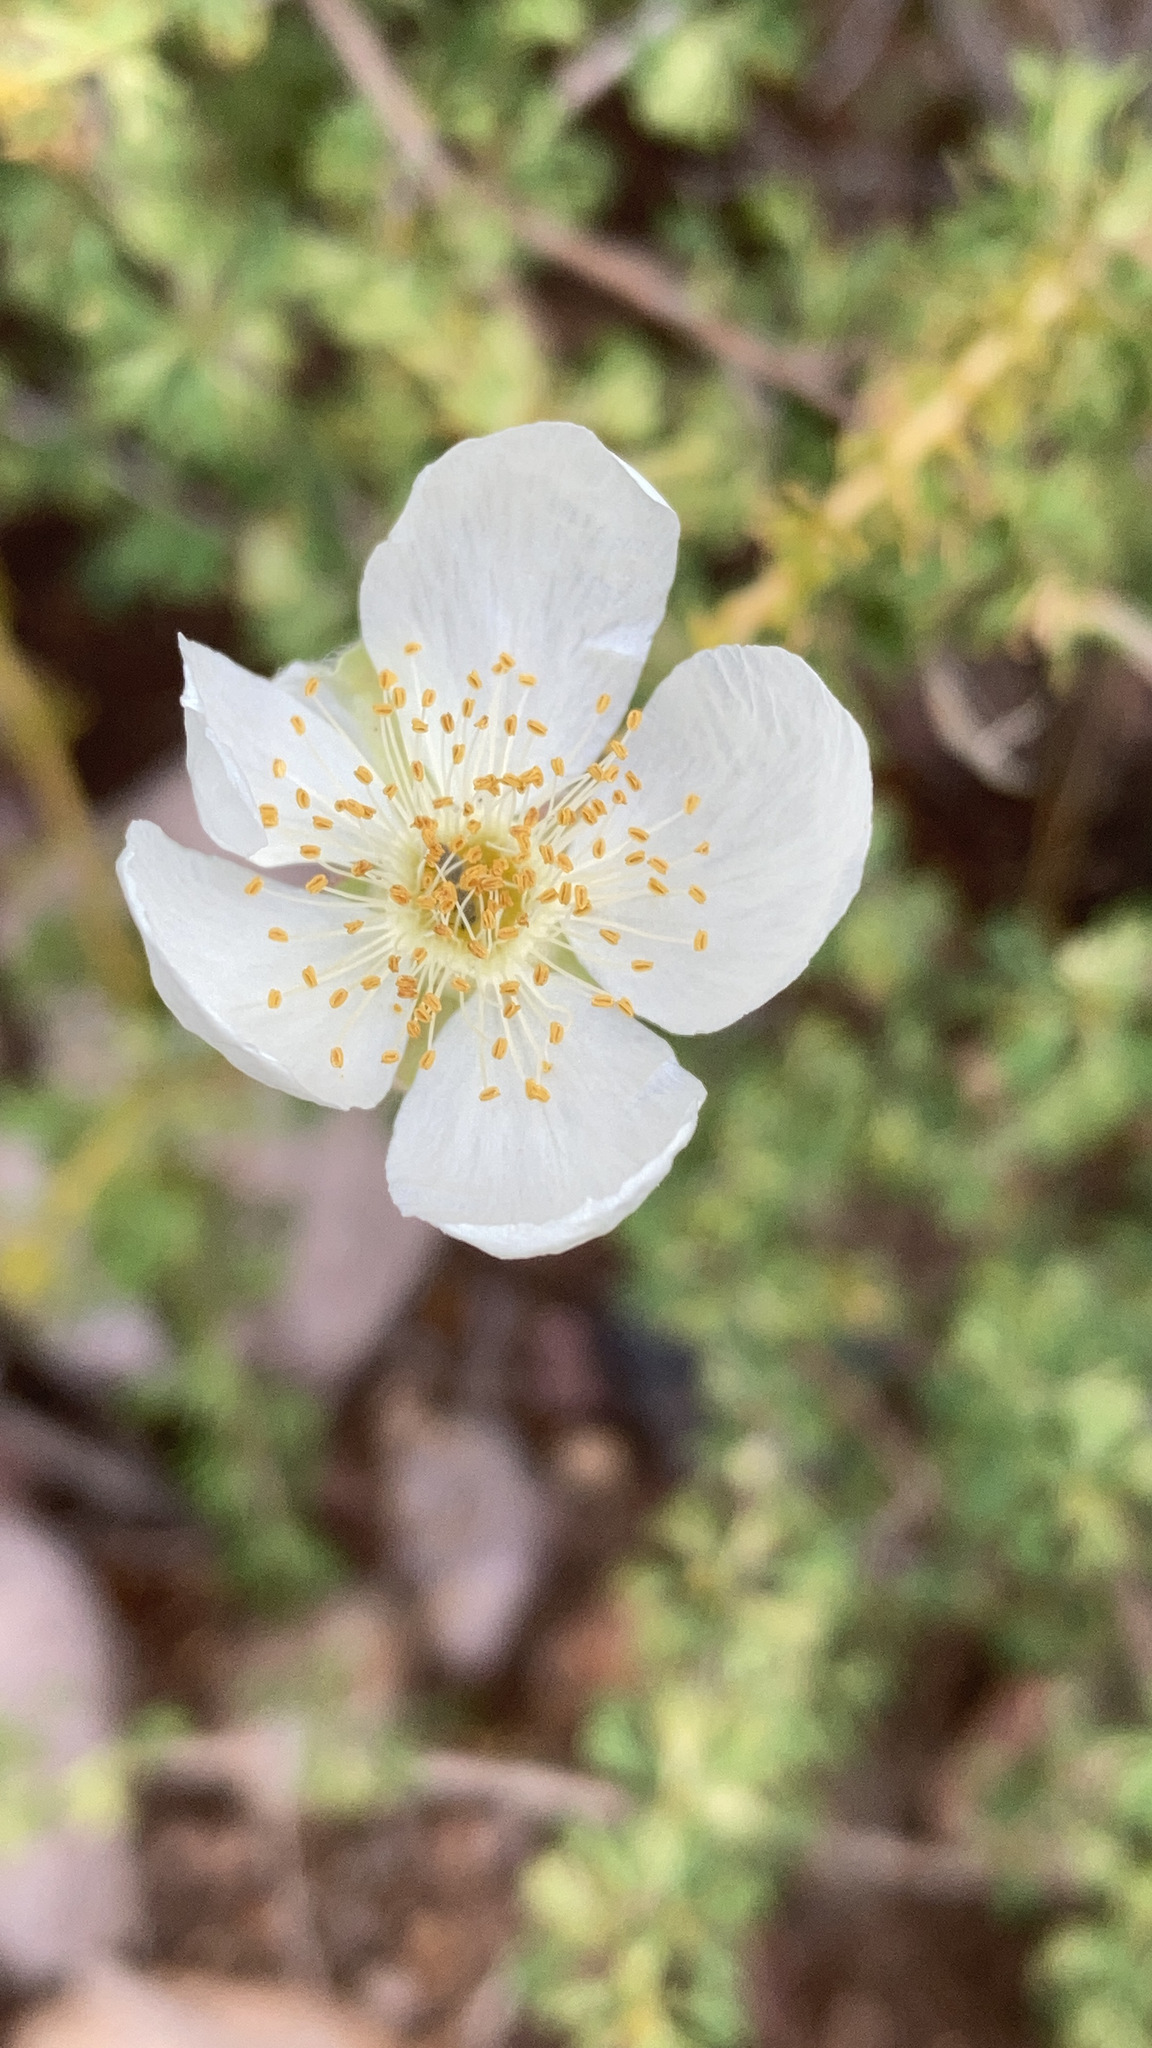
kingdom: Plantae
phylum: Tracheophyta
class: Magnoliopsida
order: Rosales
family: Rosaceae
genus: Fallugia
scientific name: Fallugia paradoxa
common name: Apache-plume
